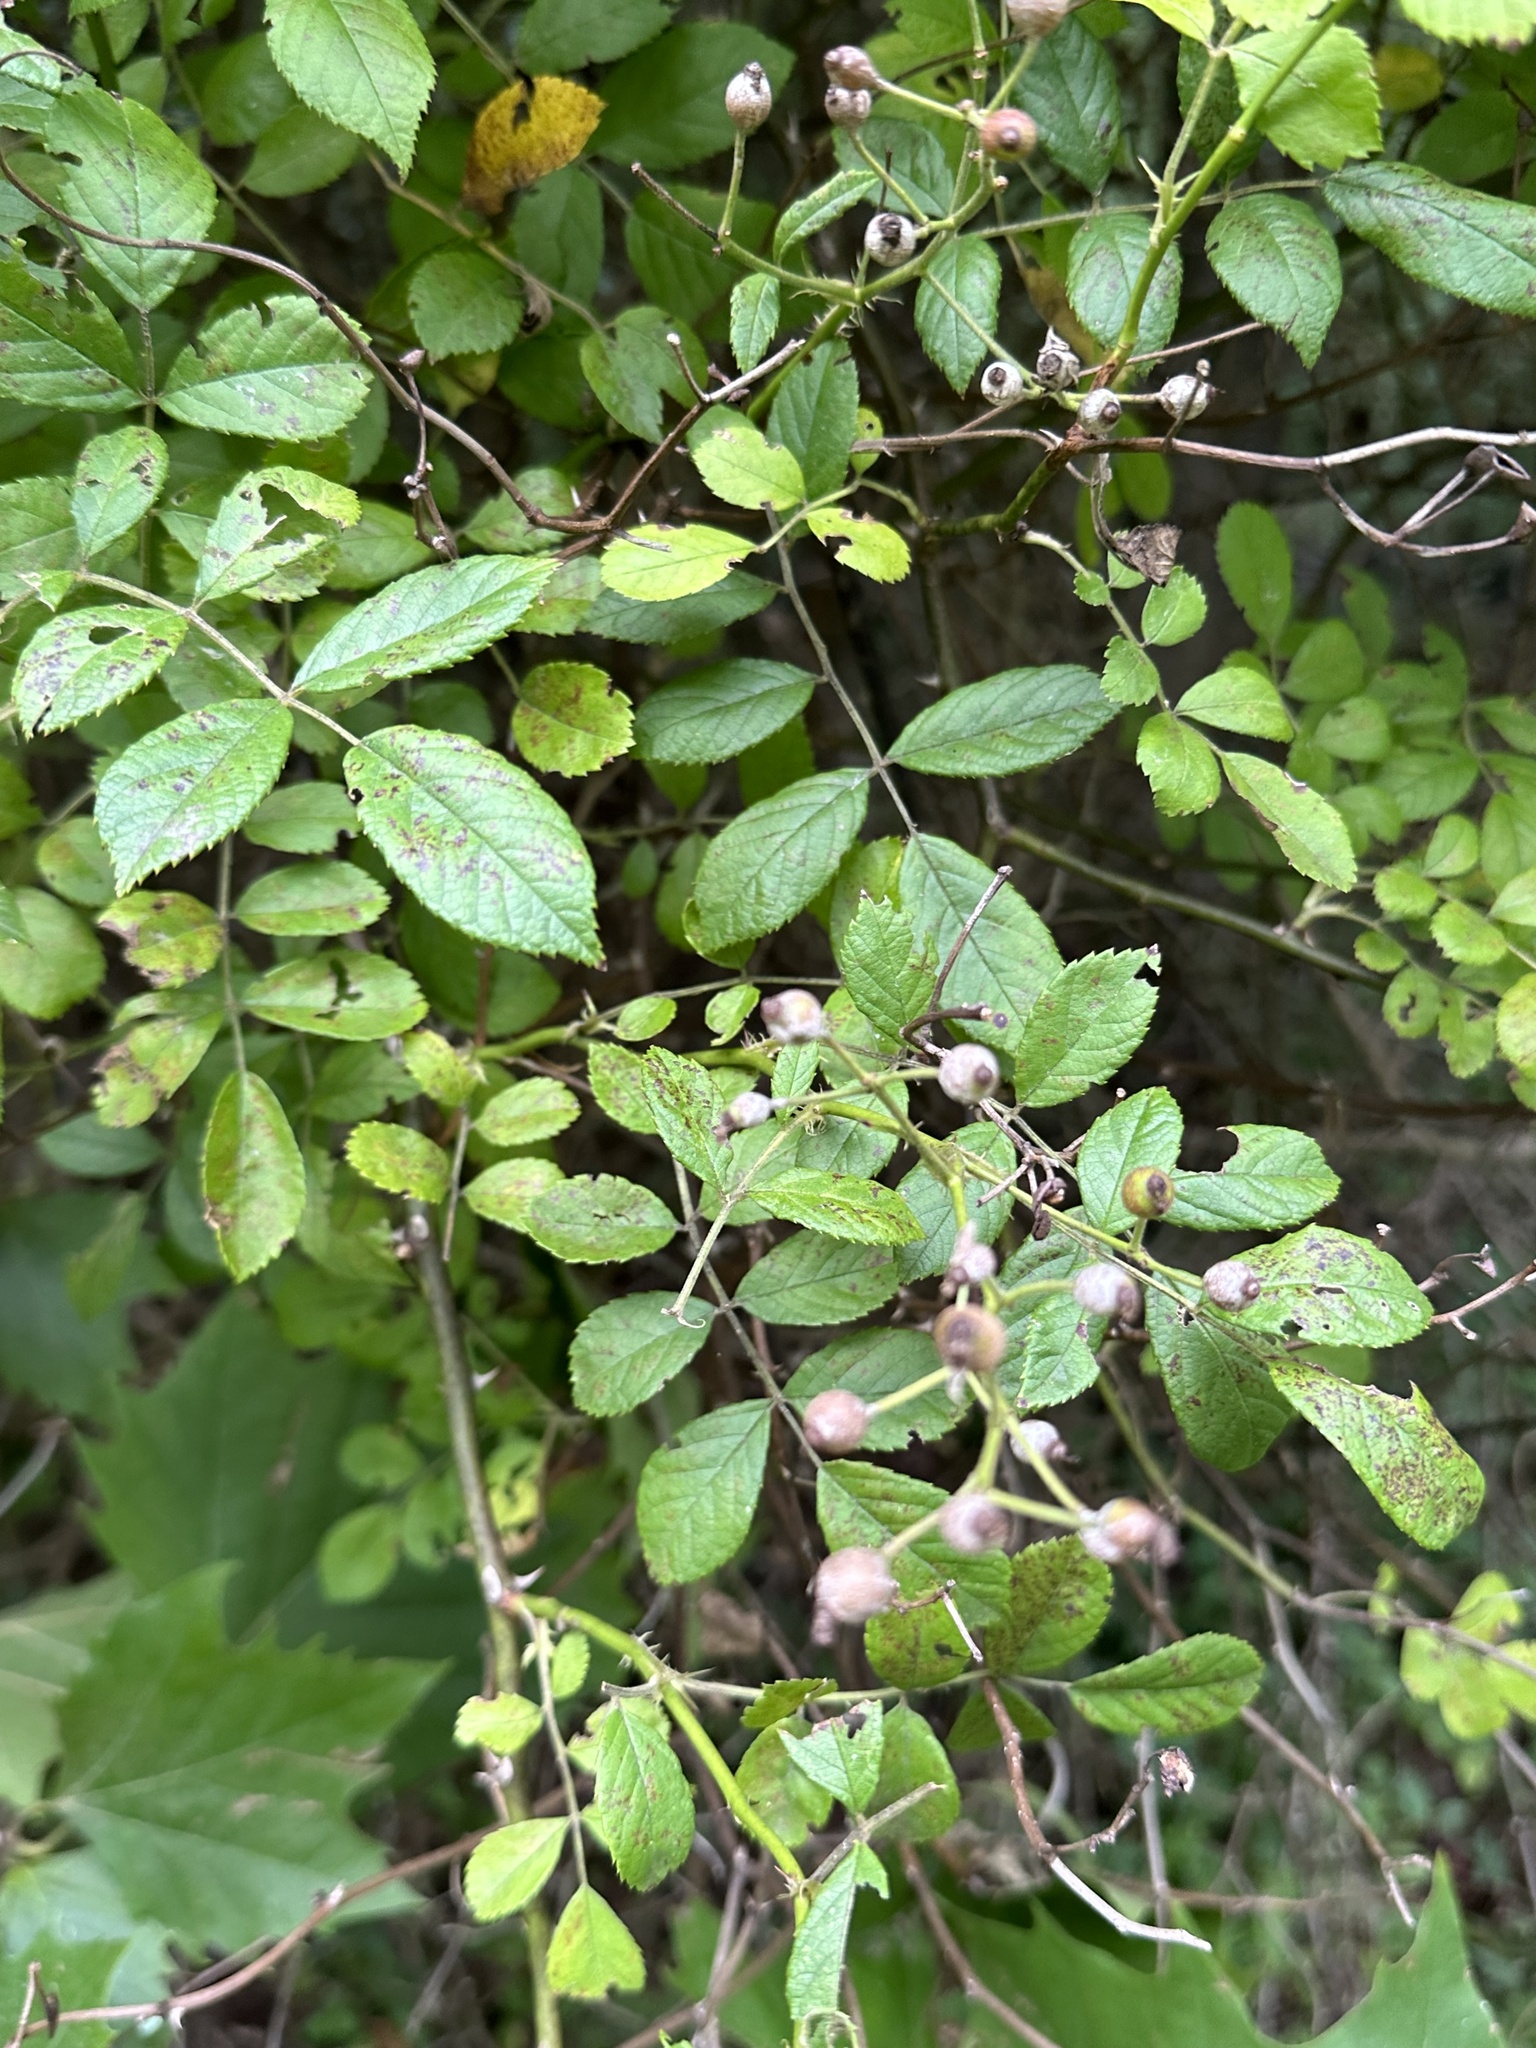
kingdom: Plantae
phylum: Tracheophyta
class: Magnoliopsida
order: Rosales
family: Rosaceae
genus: Rosa
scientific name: Rosa multiflora
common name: Multiflora rose
